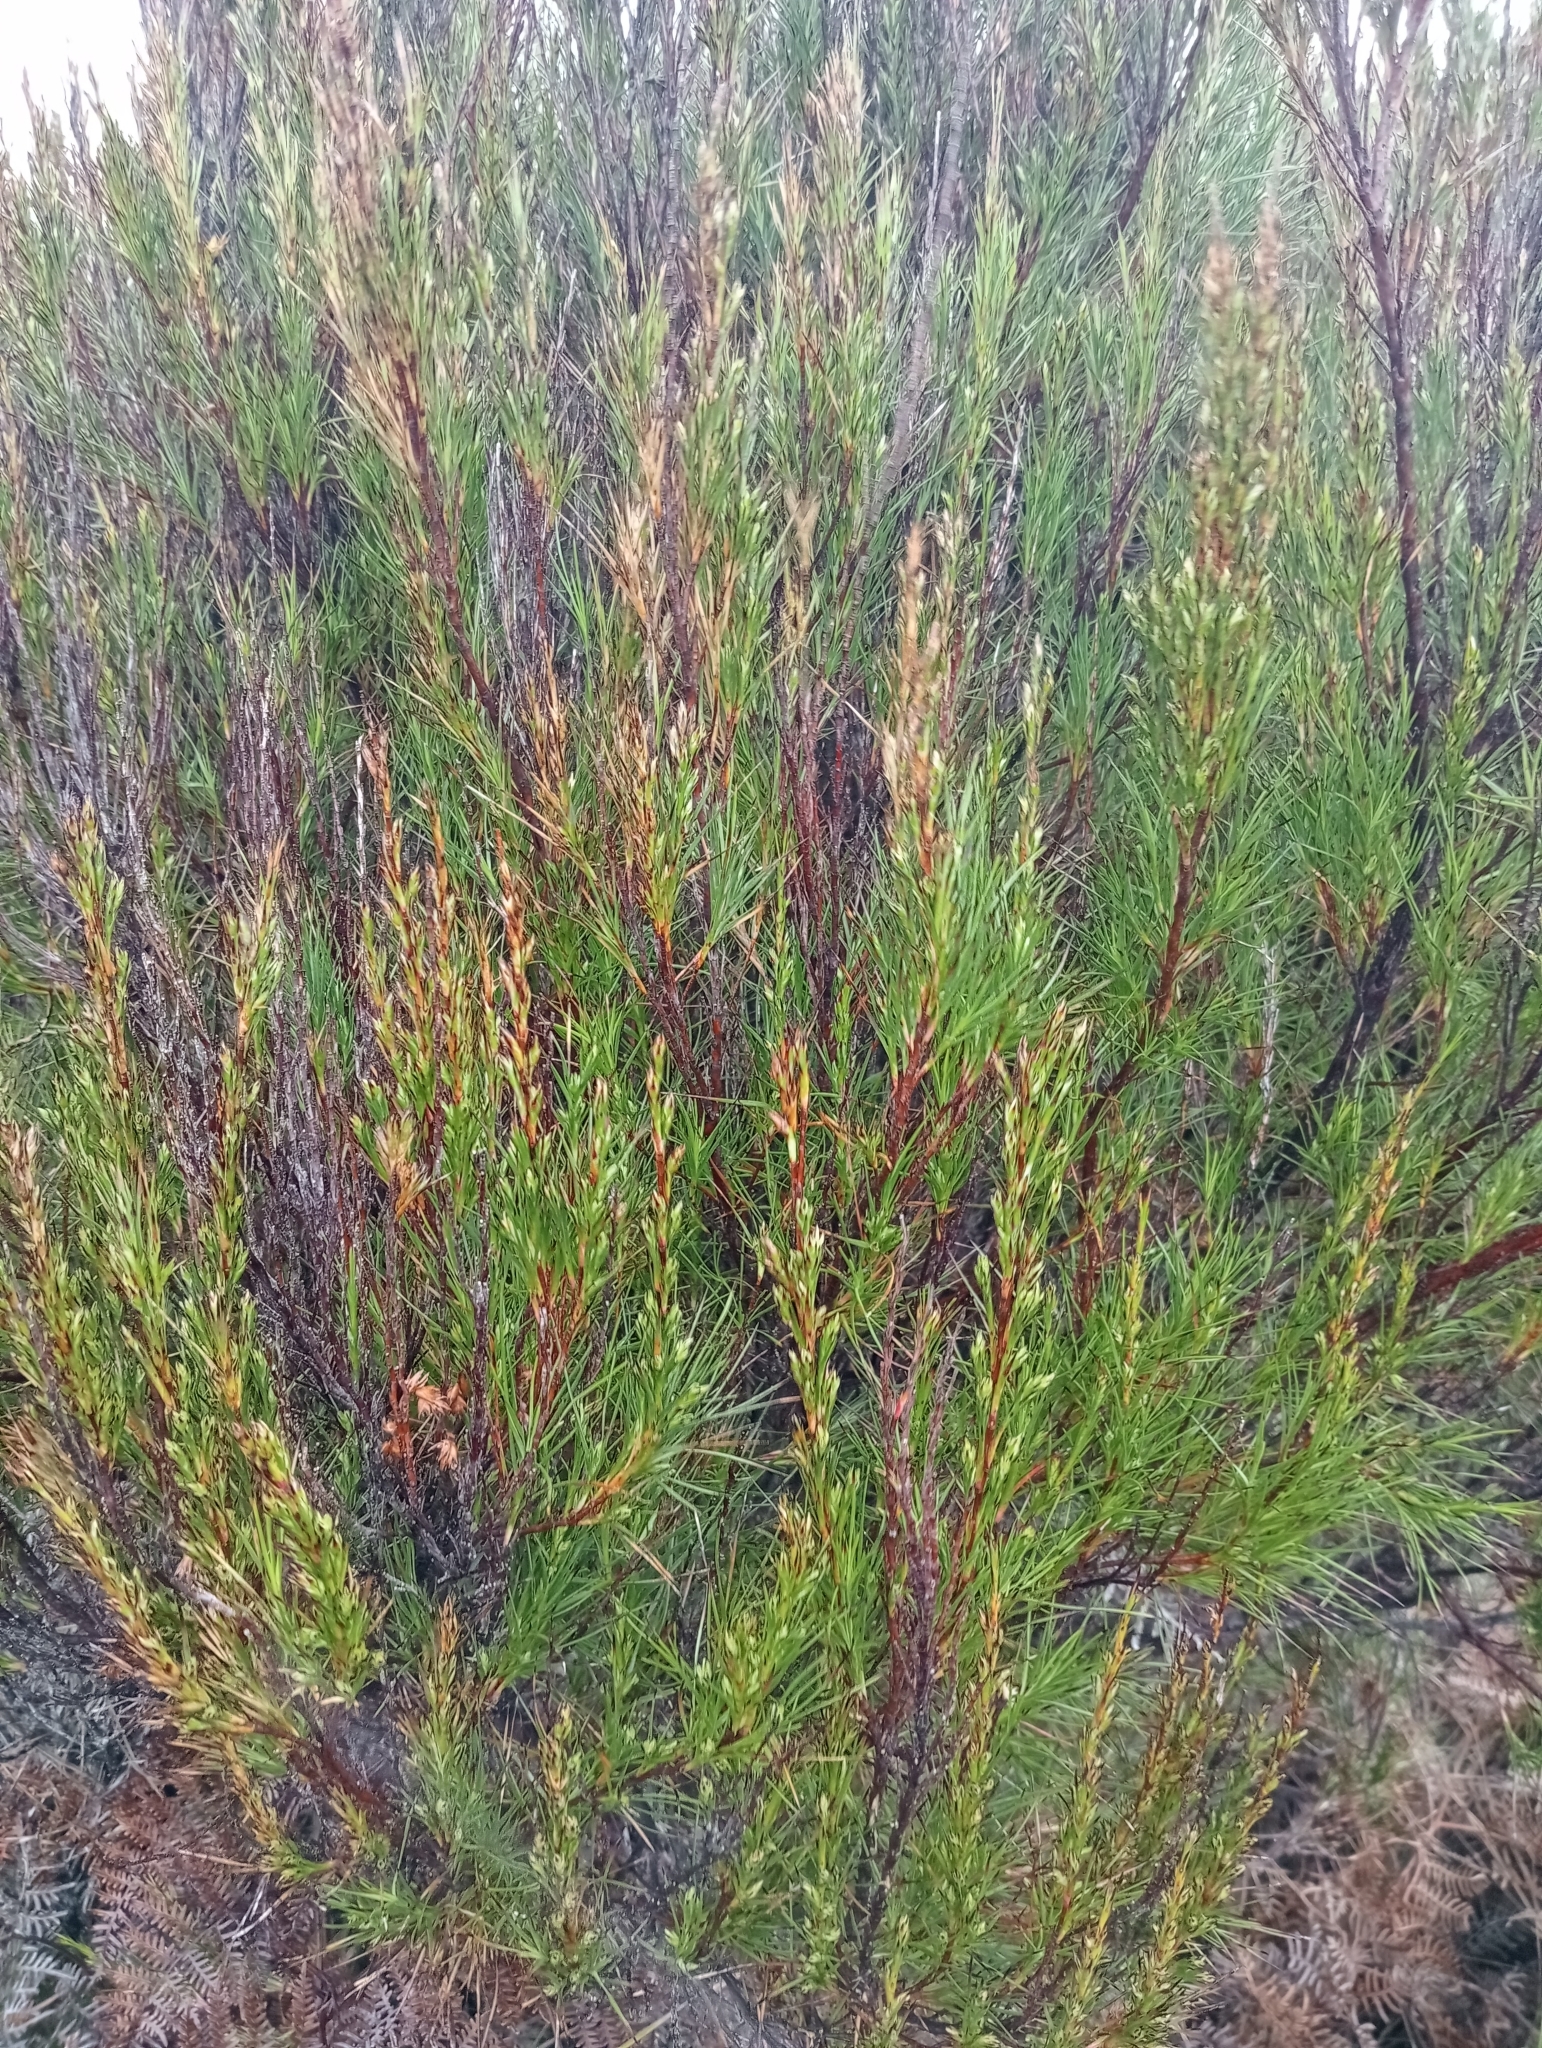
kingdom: Plantae
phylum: Tracheophyta
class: Magnoliopsida
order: Ericales
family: Ericaceae
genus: Dracophyllum
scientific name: Dracophyllum scoparium
